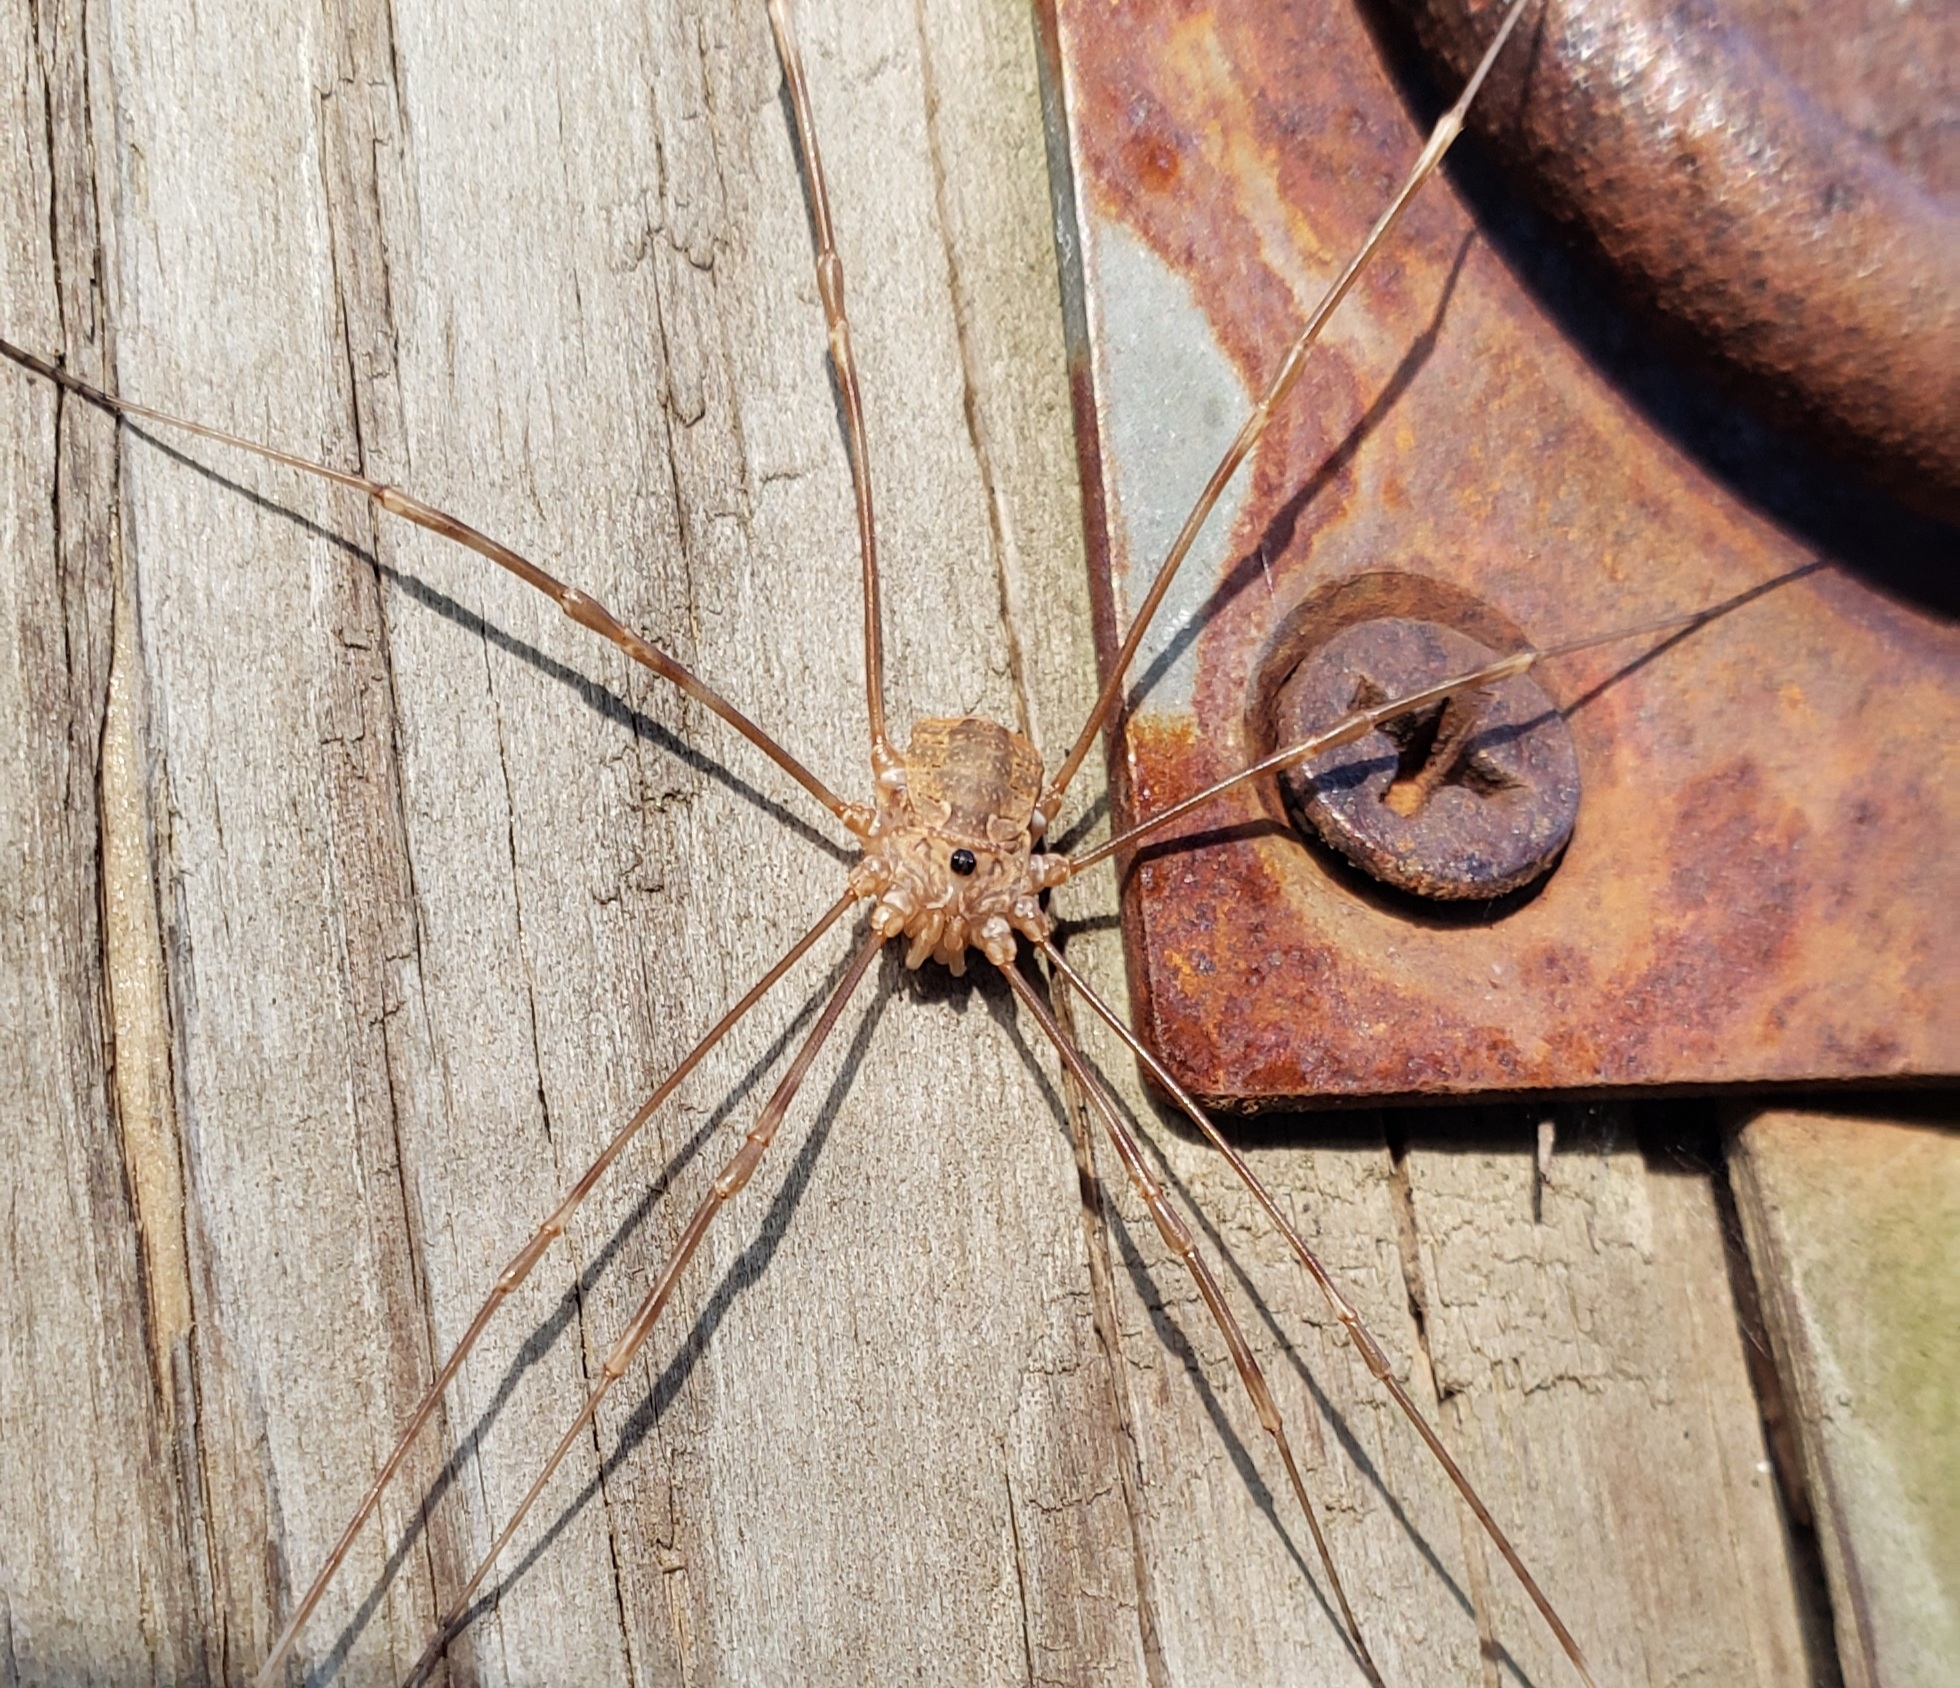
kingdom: Animalia
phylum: Arthropoda
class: Arachnida
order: Opiliones
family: Sclerosomatidae
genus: Leiobunum
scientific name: Leiobunum flavum
